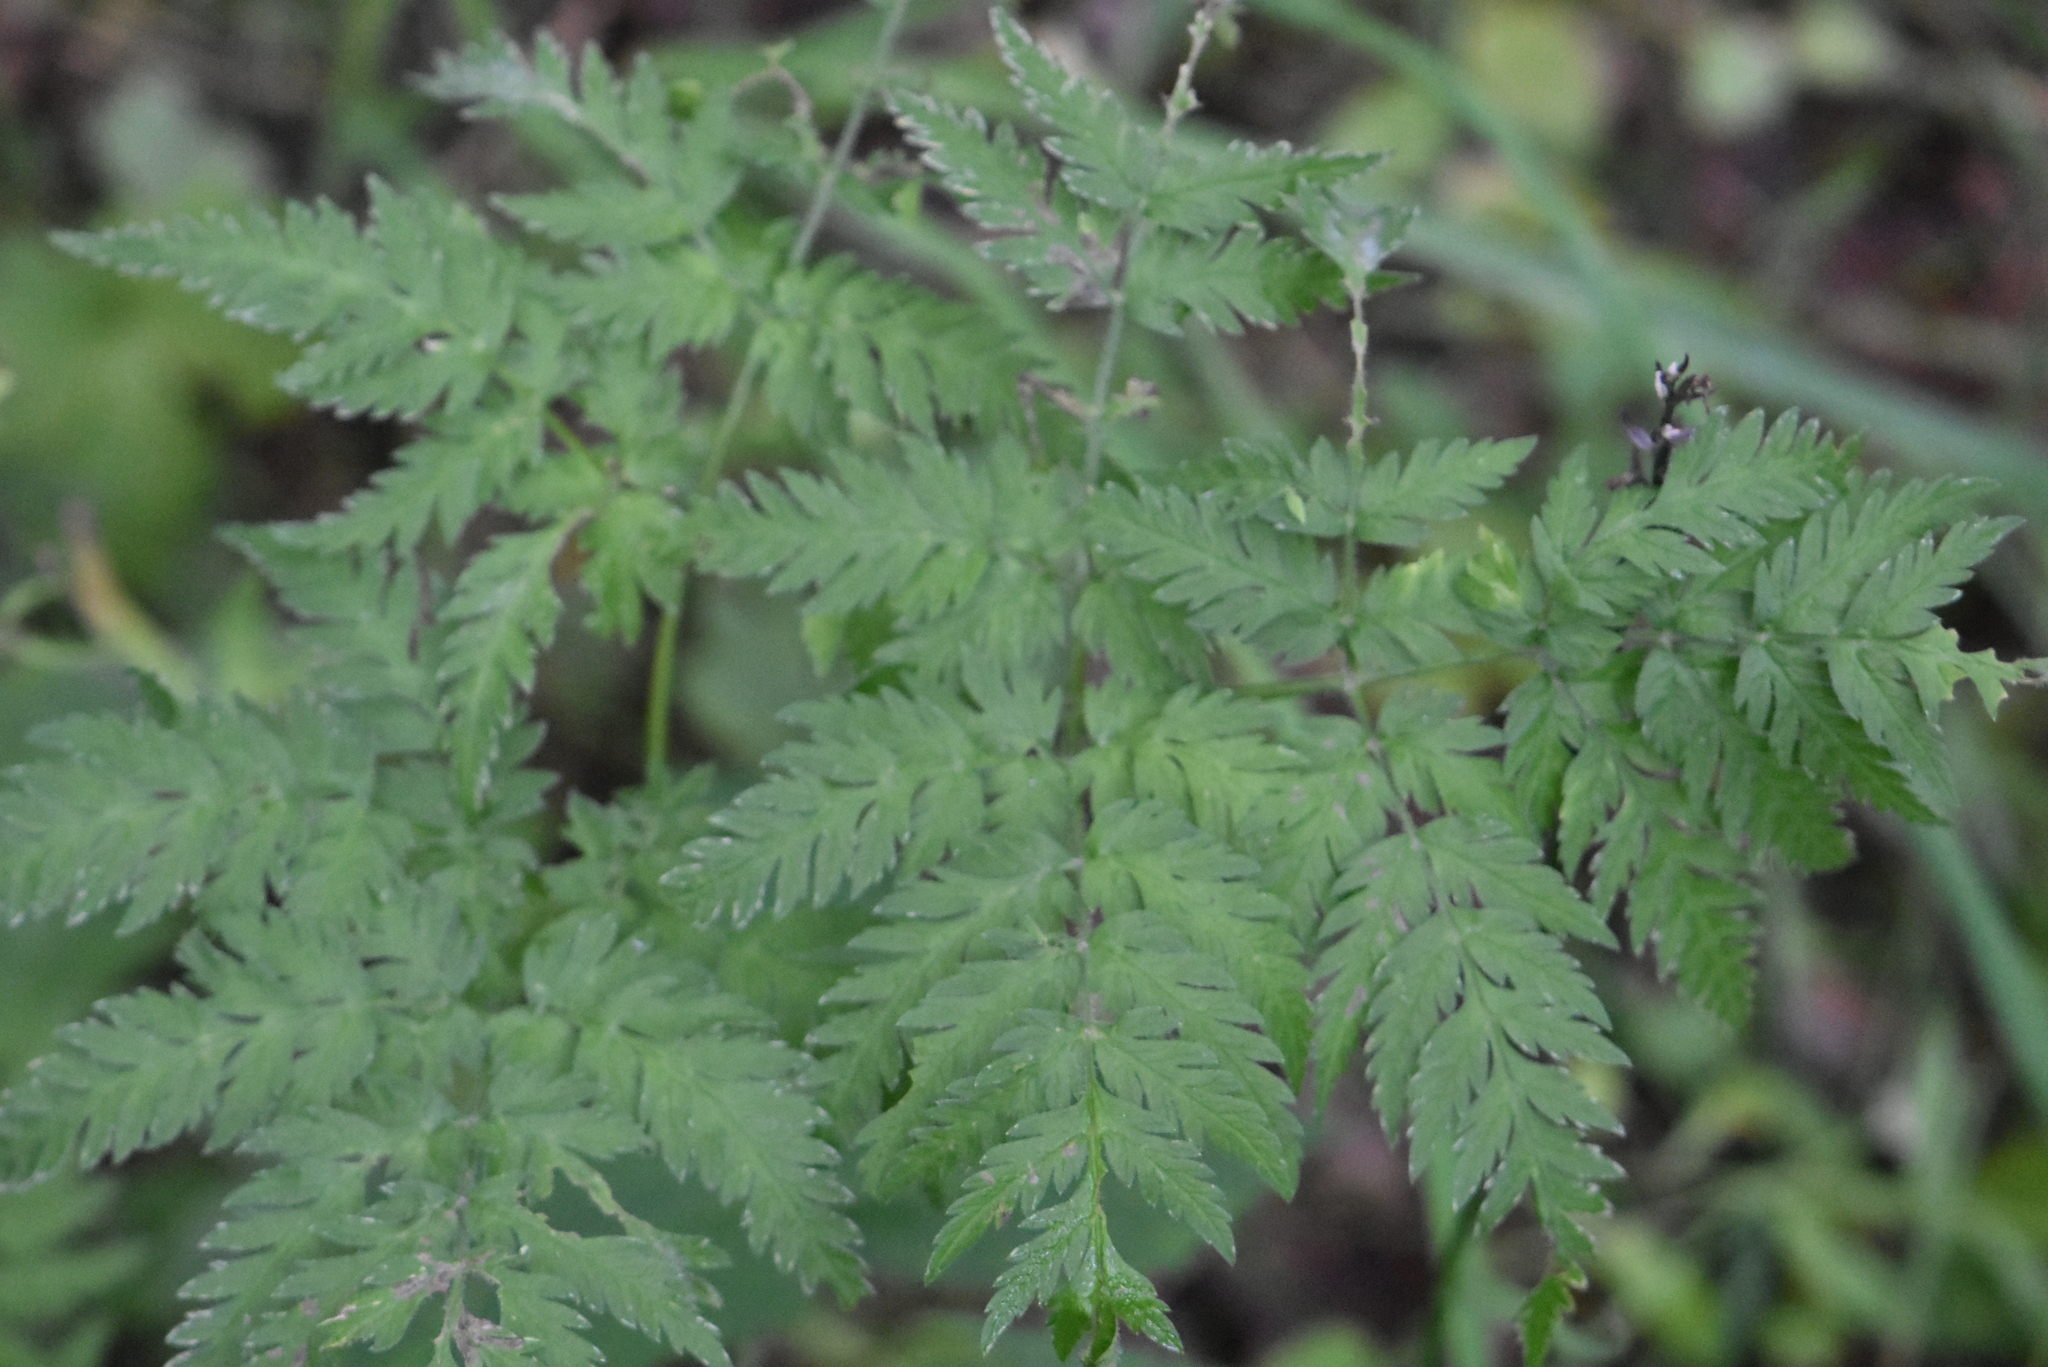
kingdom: Plantae
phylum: Tracheophyta
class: Magnoliopsida
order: Apiales
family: Apiaceae
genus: Anthriscus
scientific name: Anthriscus sylvestris
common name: Cow parsley
